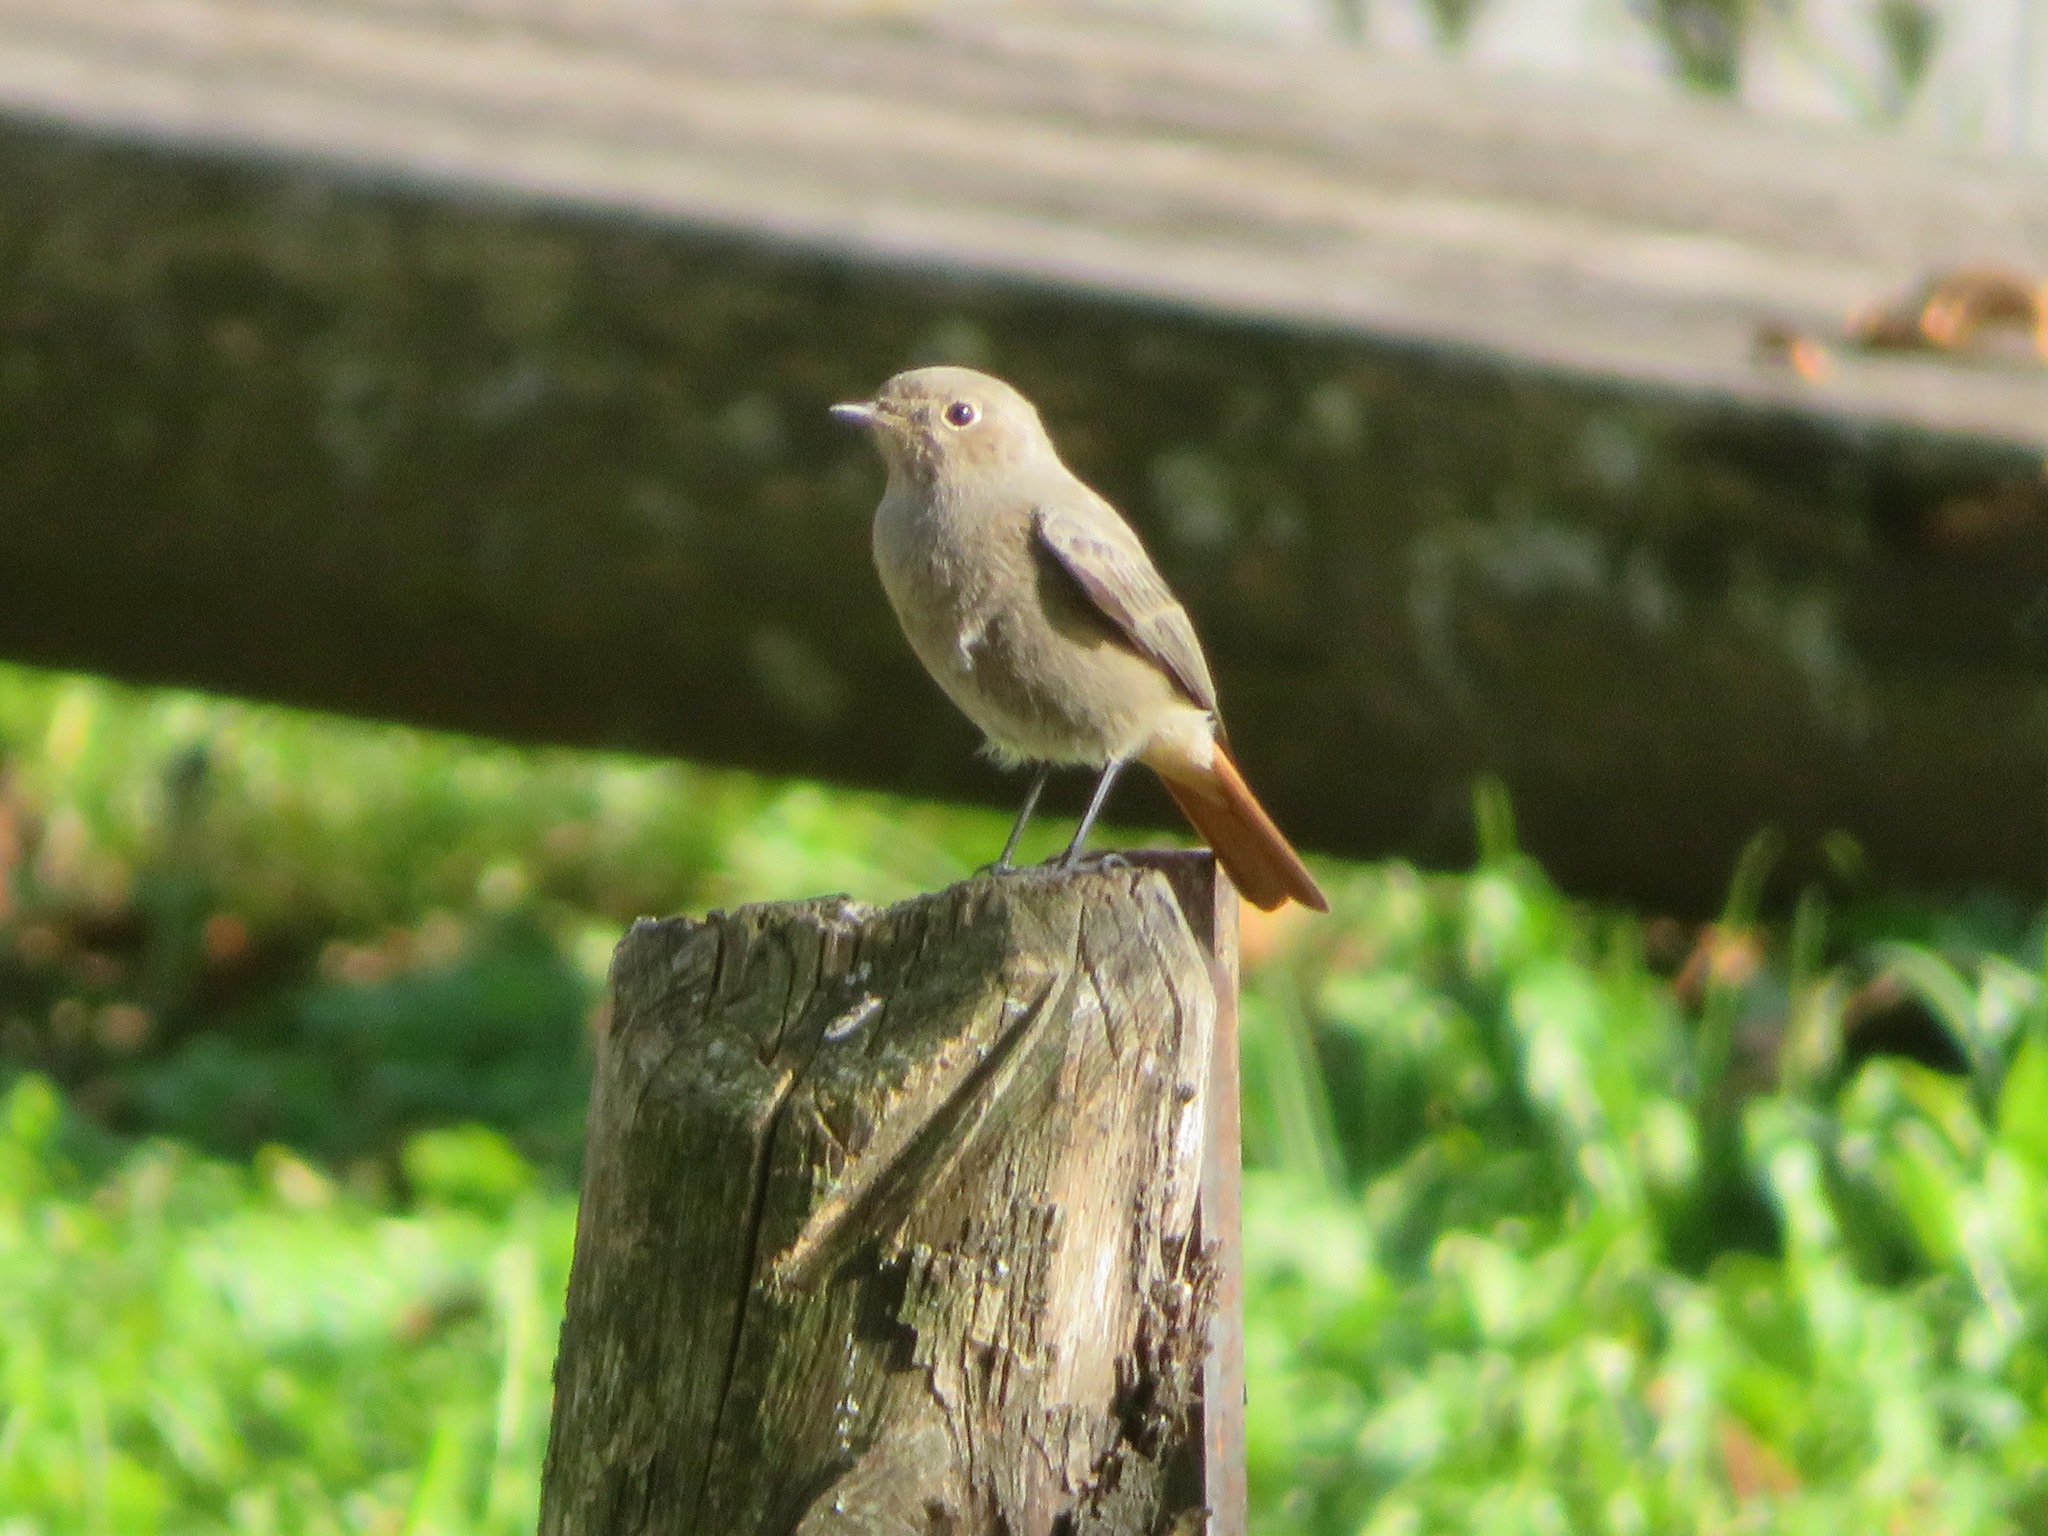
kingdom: Animalia
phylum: Chordata
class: Aves
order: Passeriformes
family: Muscicapidae
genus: Phoenicurus
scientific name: Phoenicurus ochruros
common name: Black redstart
